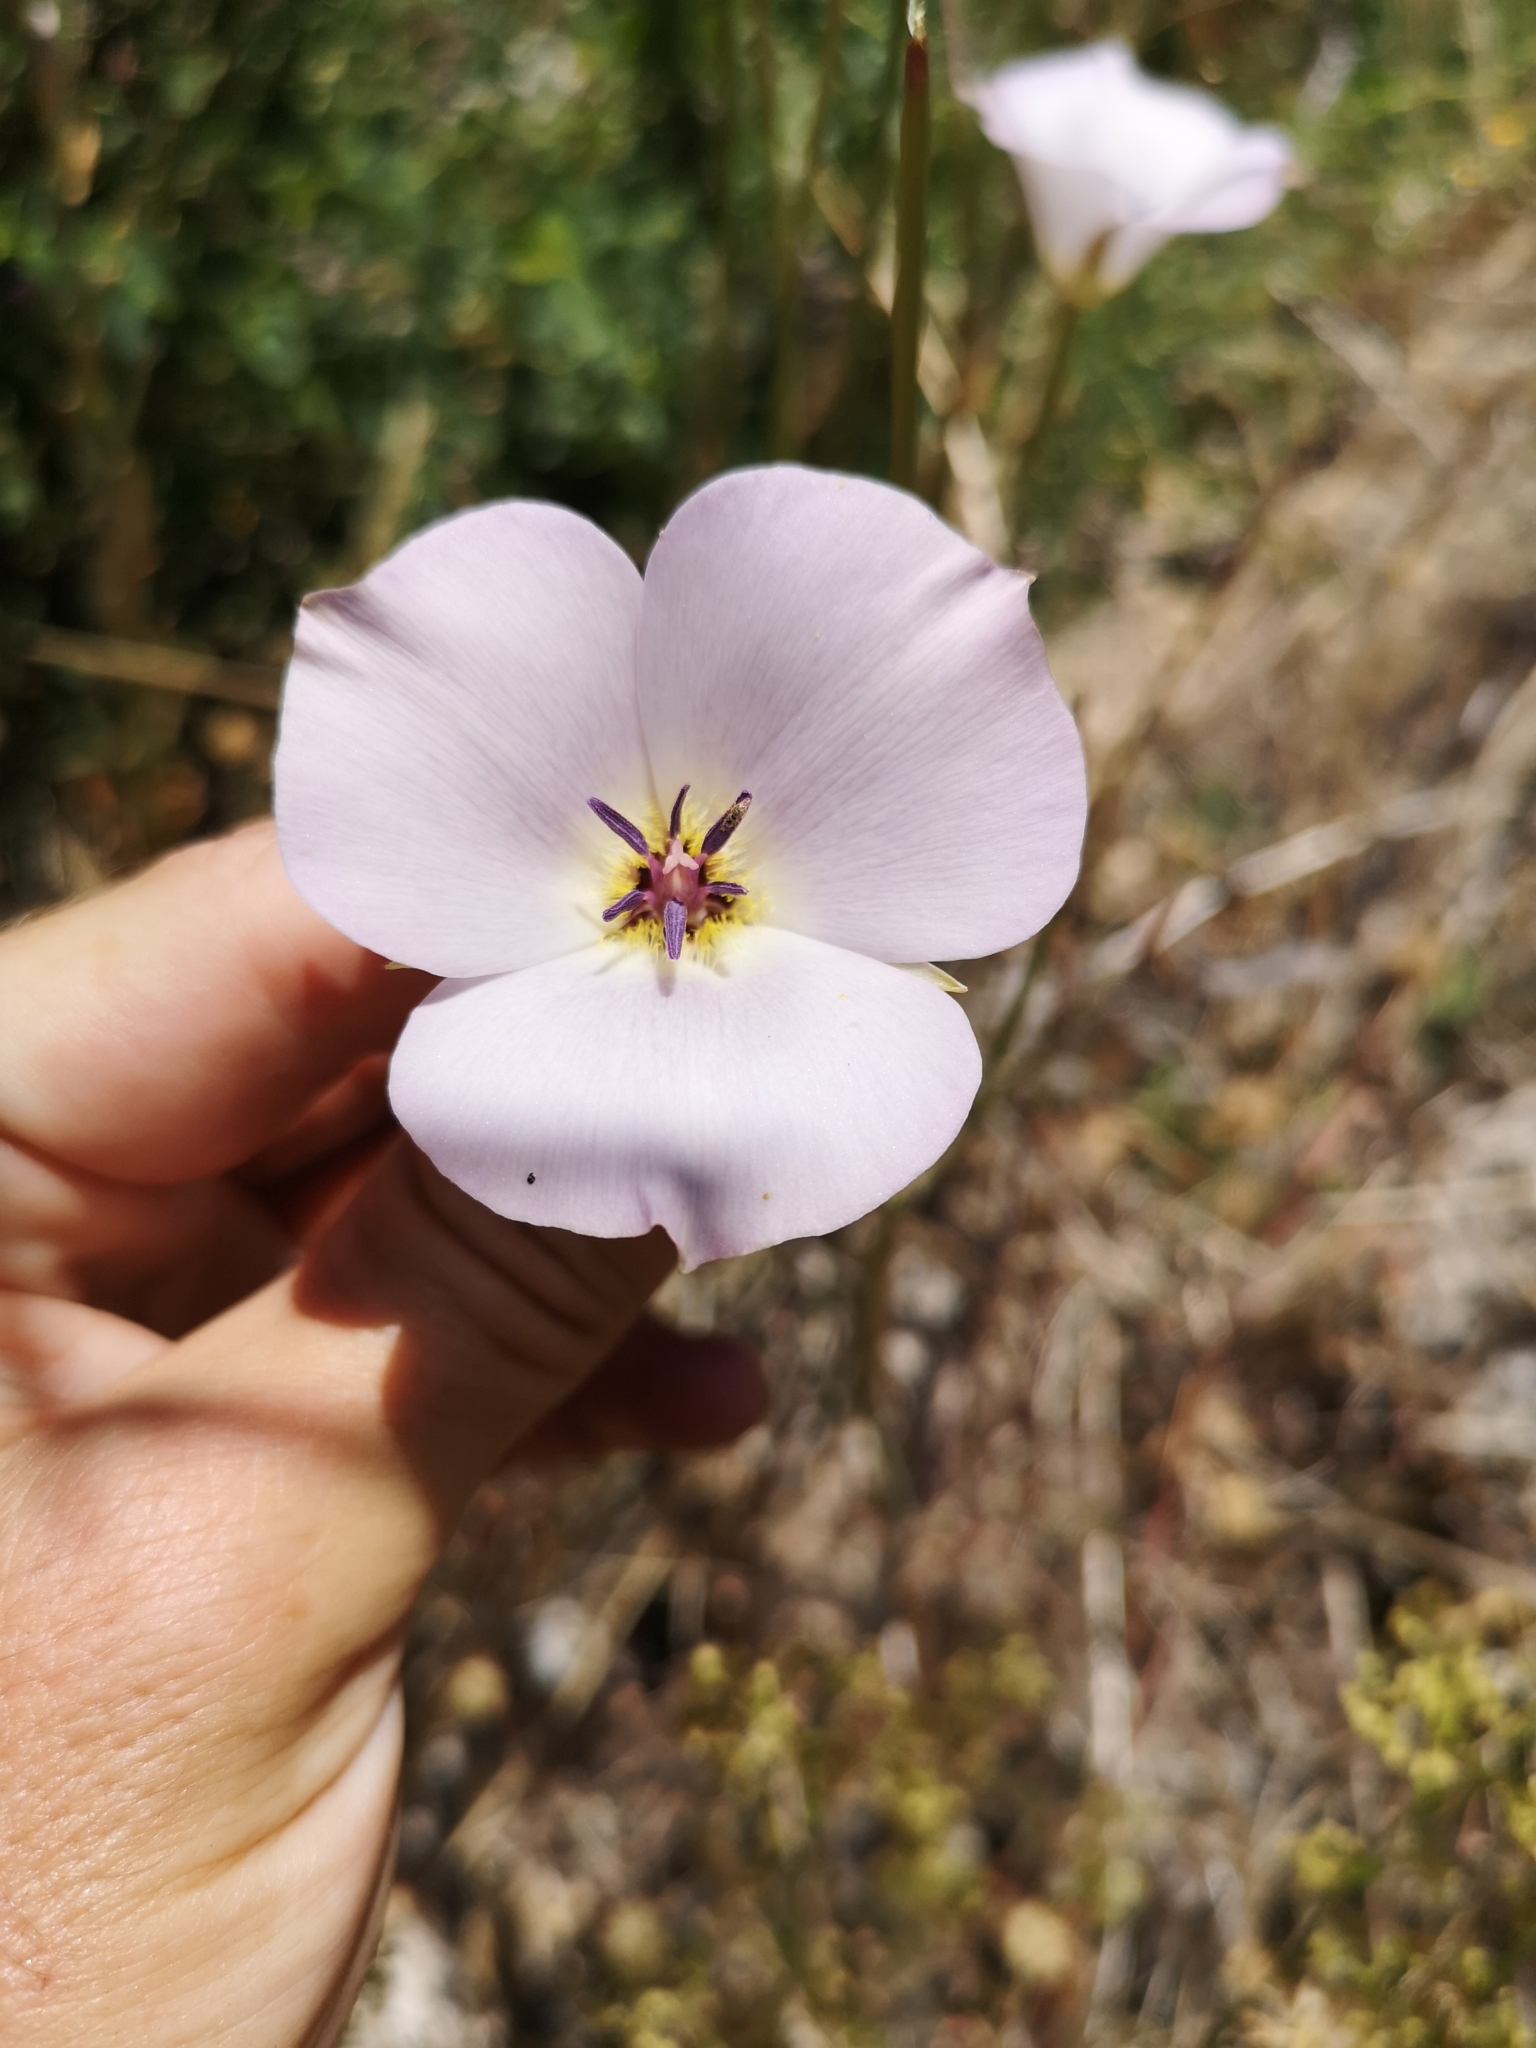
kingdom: Plantae
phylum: Tracheophyta
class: Liliopsida
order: Liliales
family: Liliaceae
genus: Calochortus
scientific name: Calochortus invenustus
